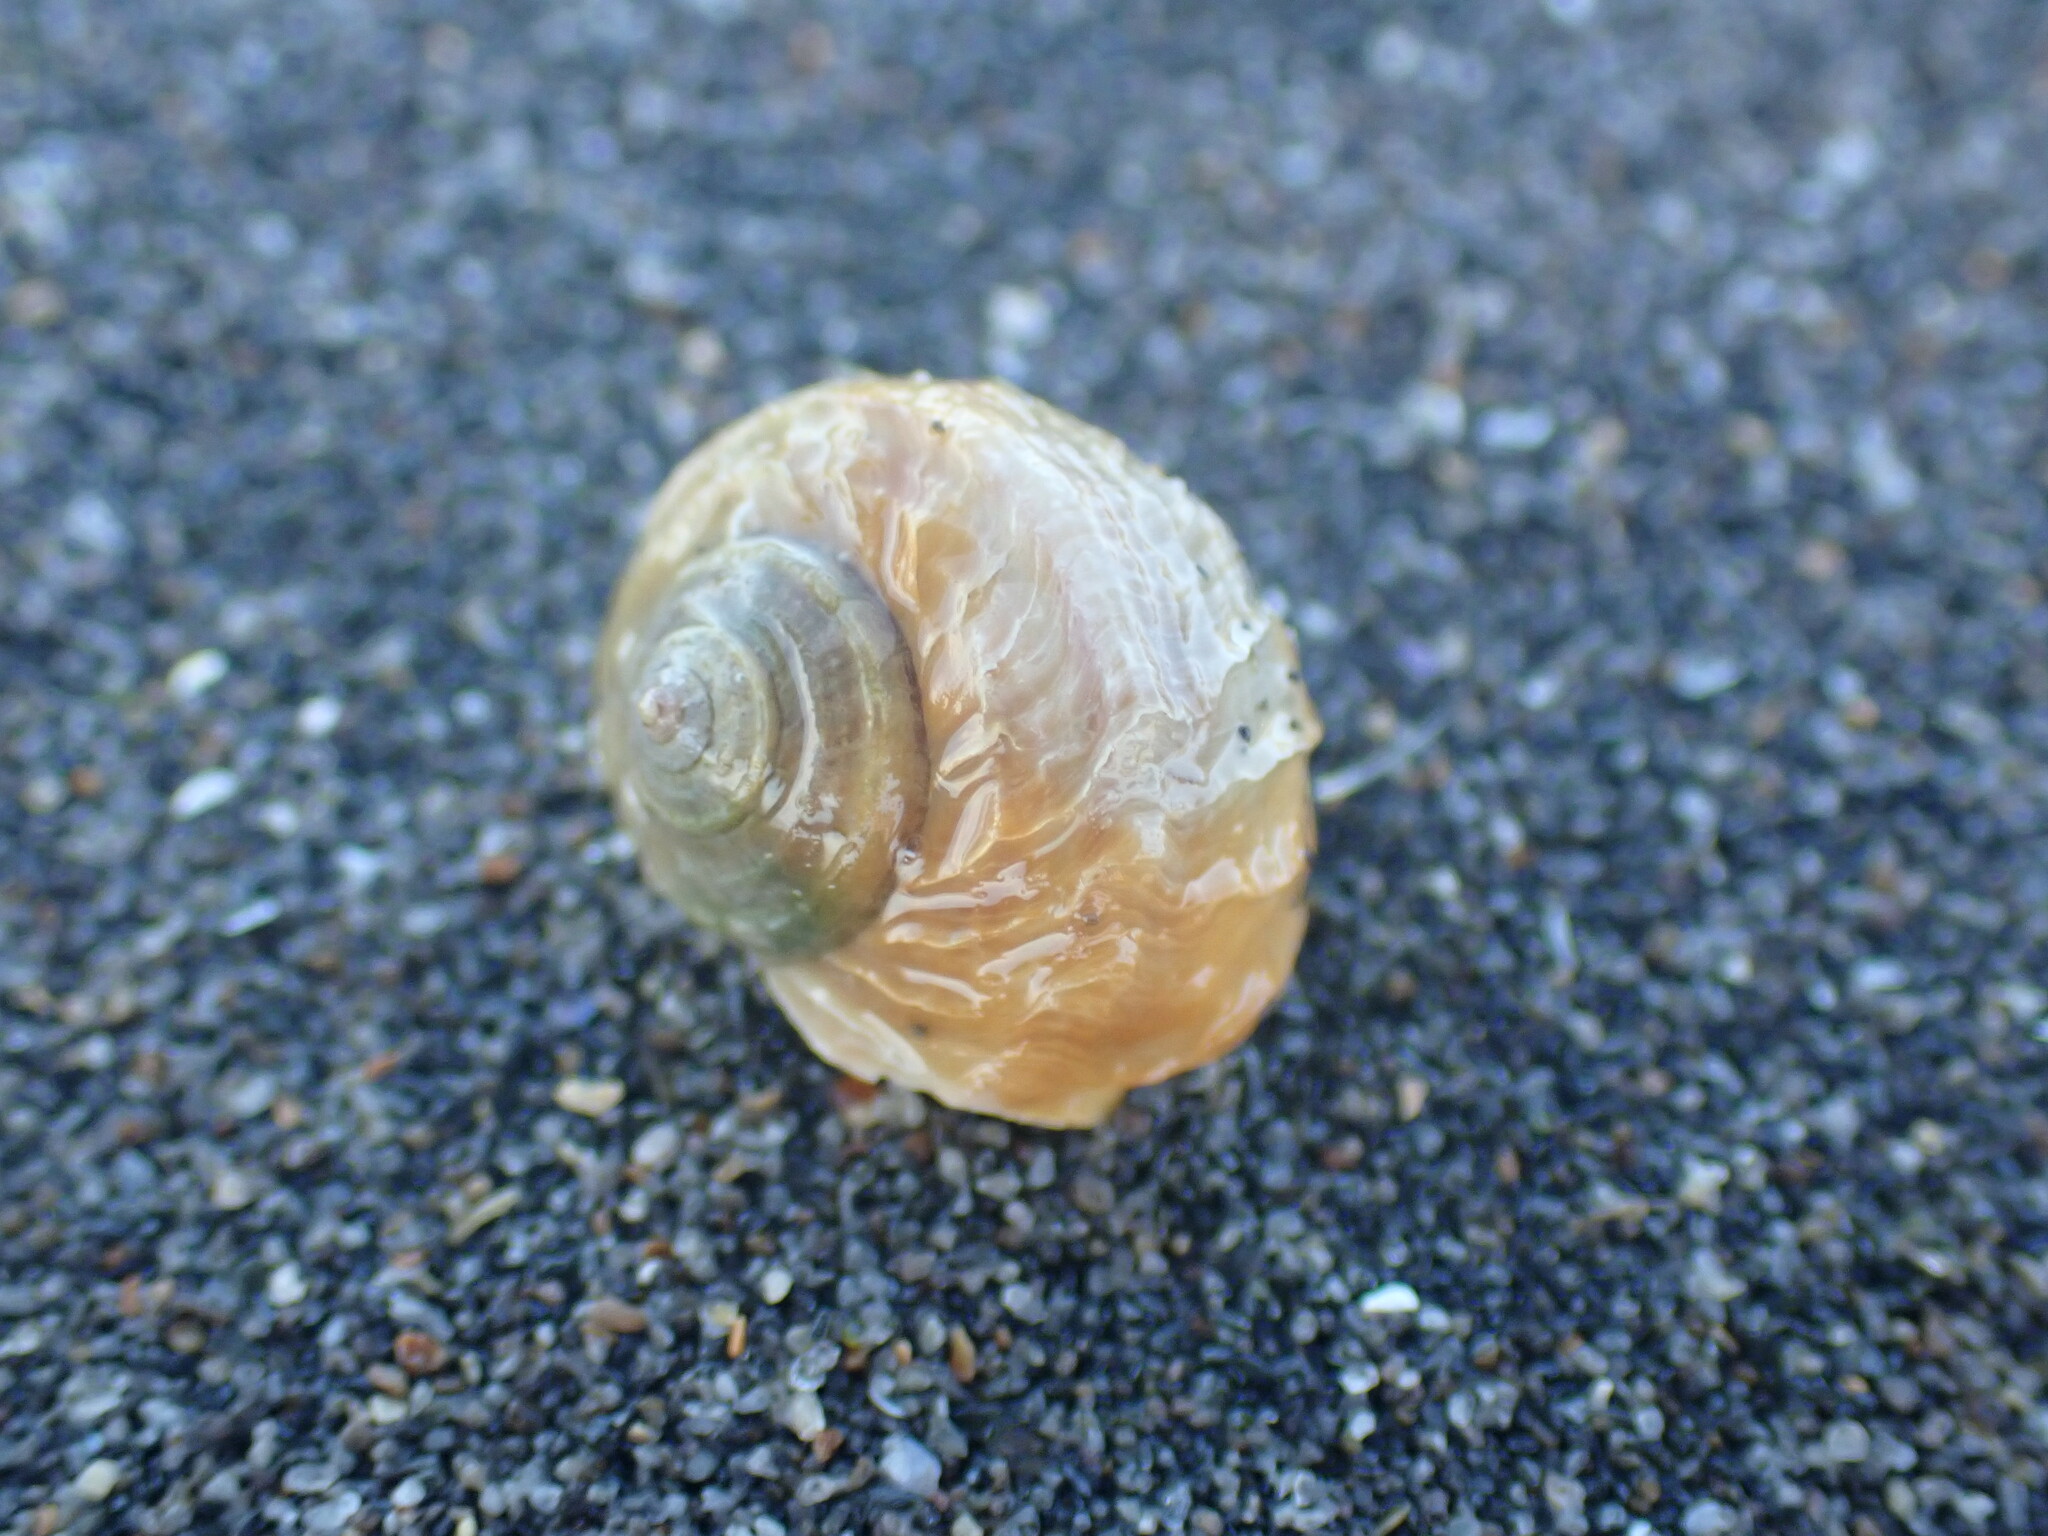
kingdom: Animalia
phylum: Mollusca
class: Gastropoda
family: Amphibolidae
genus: Amphibola
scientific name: Amphibola crenata
